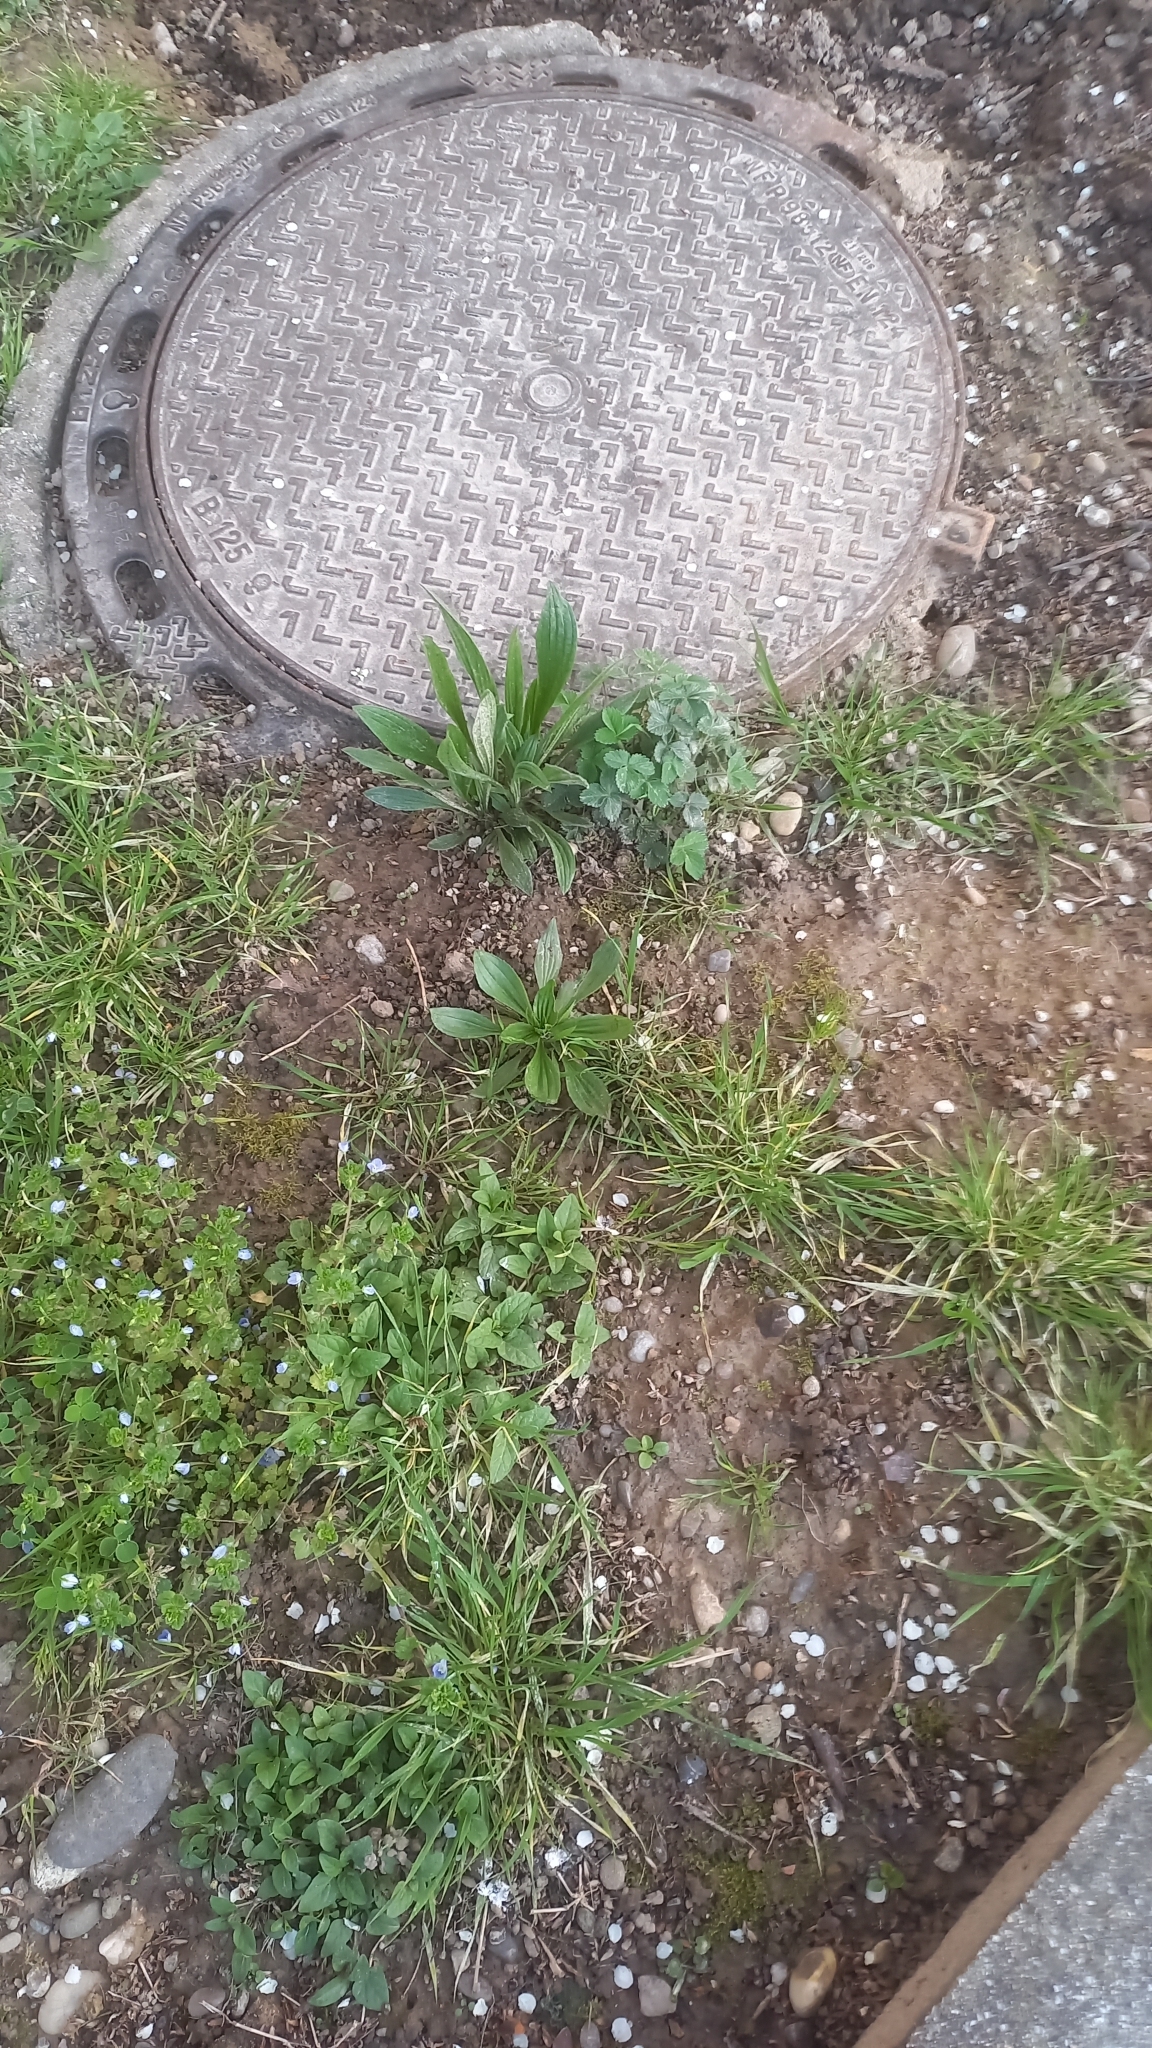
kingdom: Plantae
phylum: Tracheophyta
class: Magnoliopsida
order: Lamiales
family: Plantaginaceae
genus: Plantago
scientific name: Plantago lanceolata
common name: Ribwort plantain
